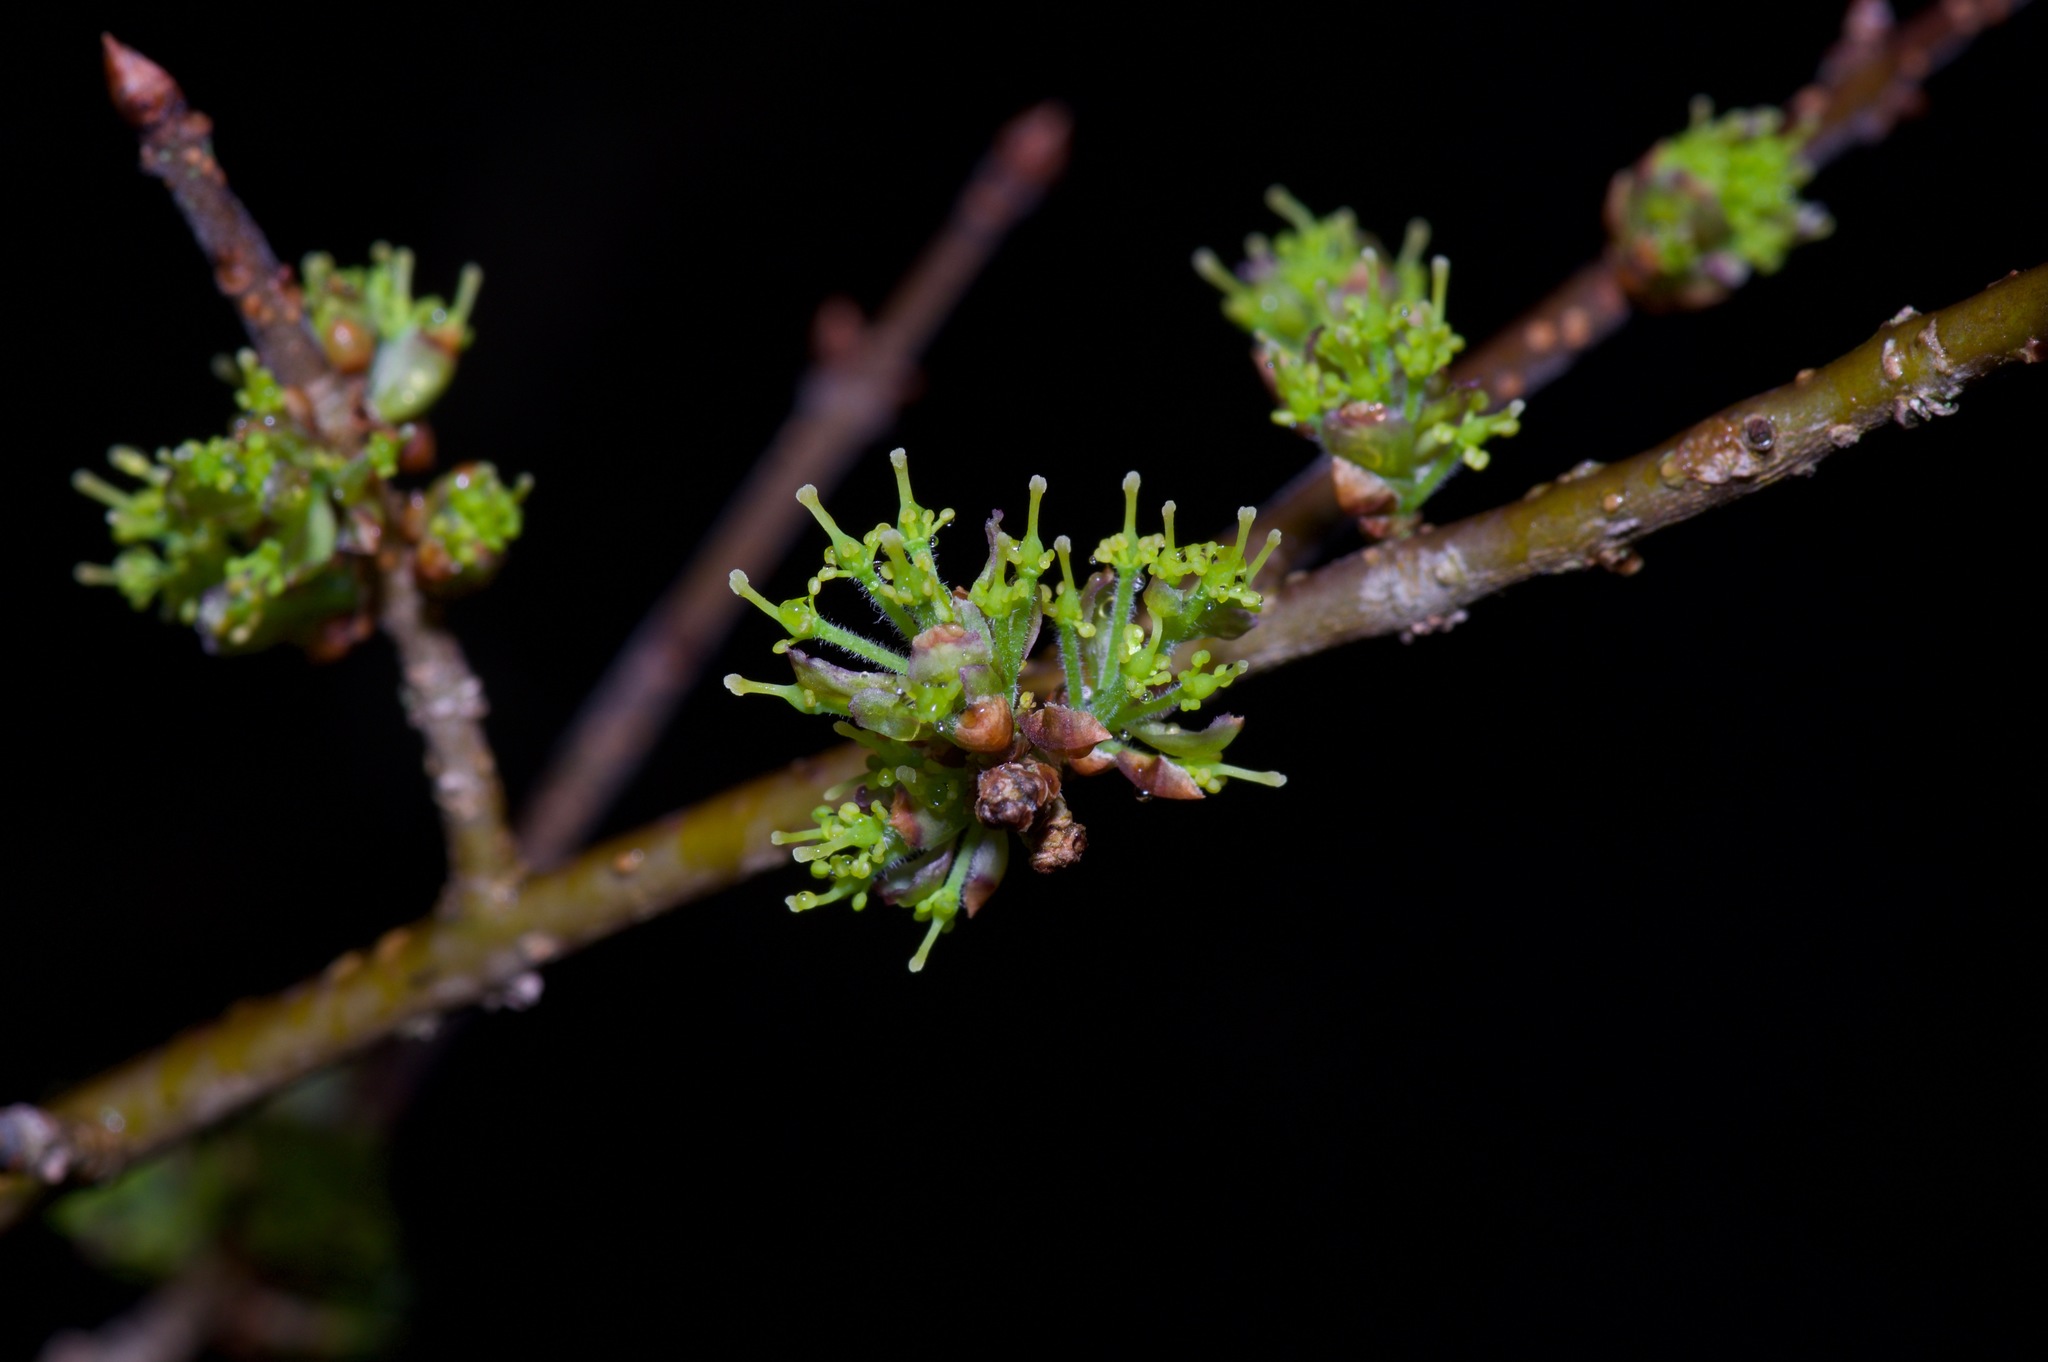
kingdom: Plantae
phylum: Tracheophyta
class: Magnoliopsida
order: Lamiales
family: Oleaceae
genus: Forestiera
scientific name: Forestiera pubescens
